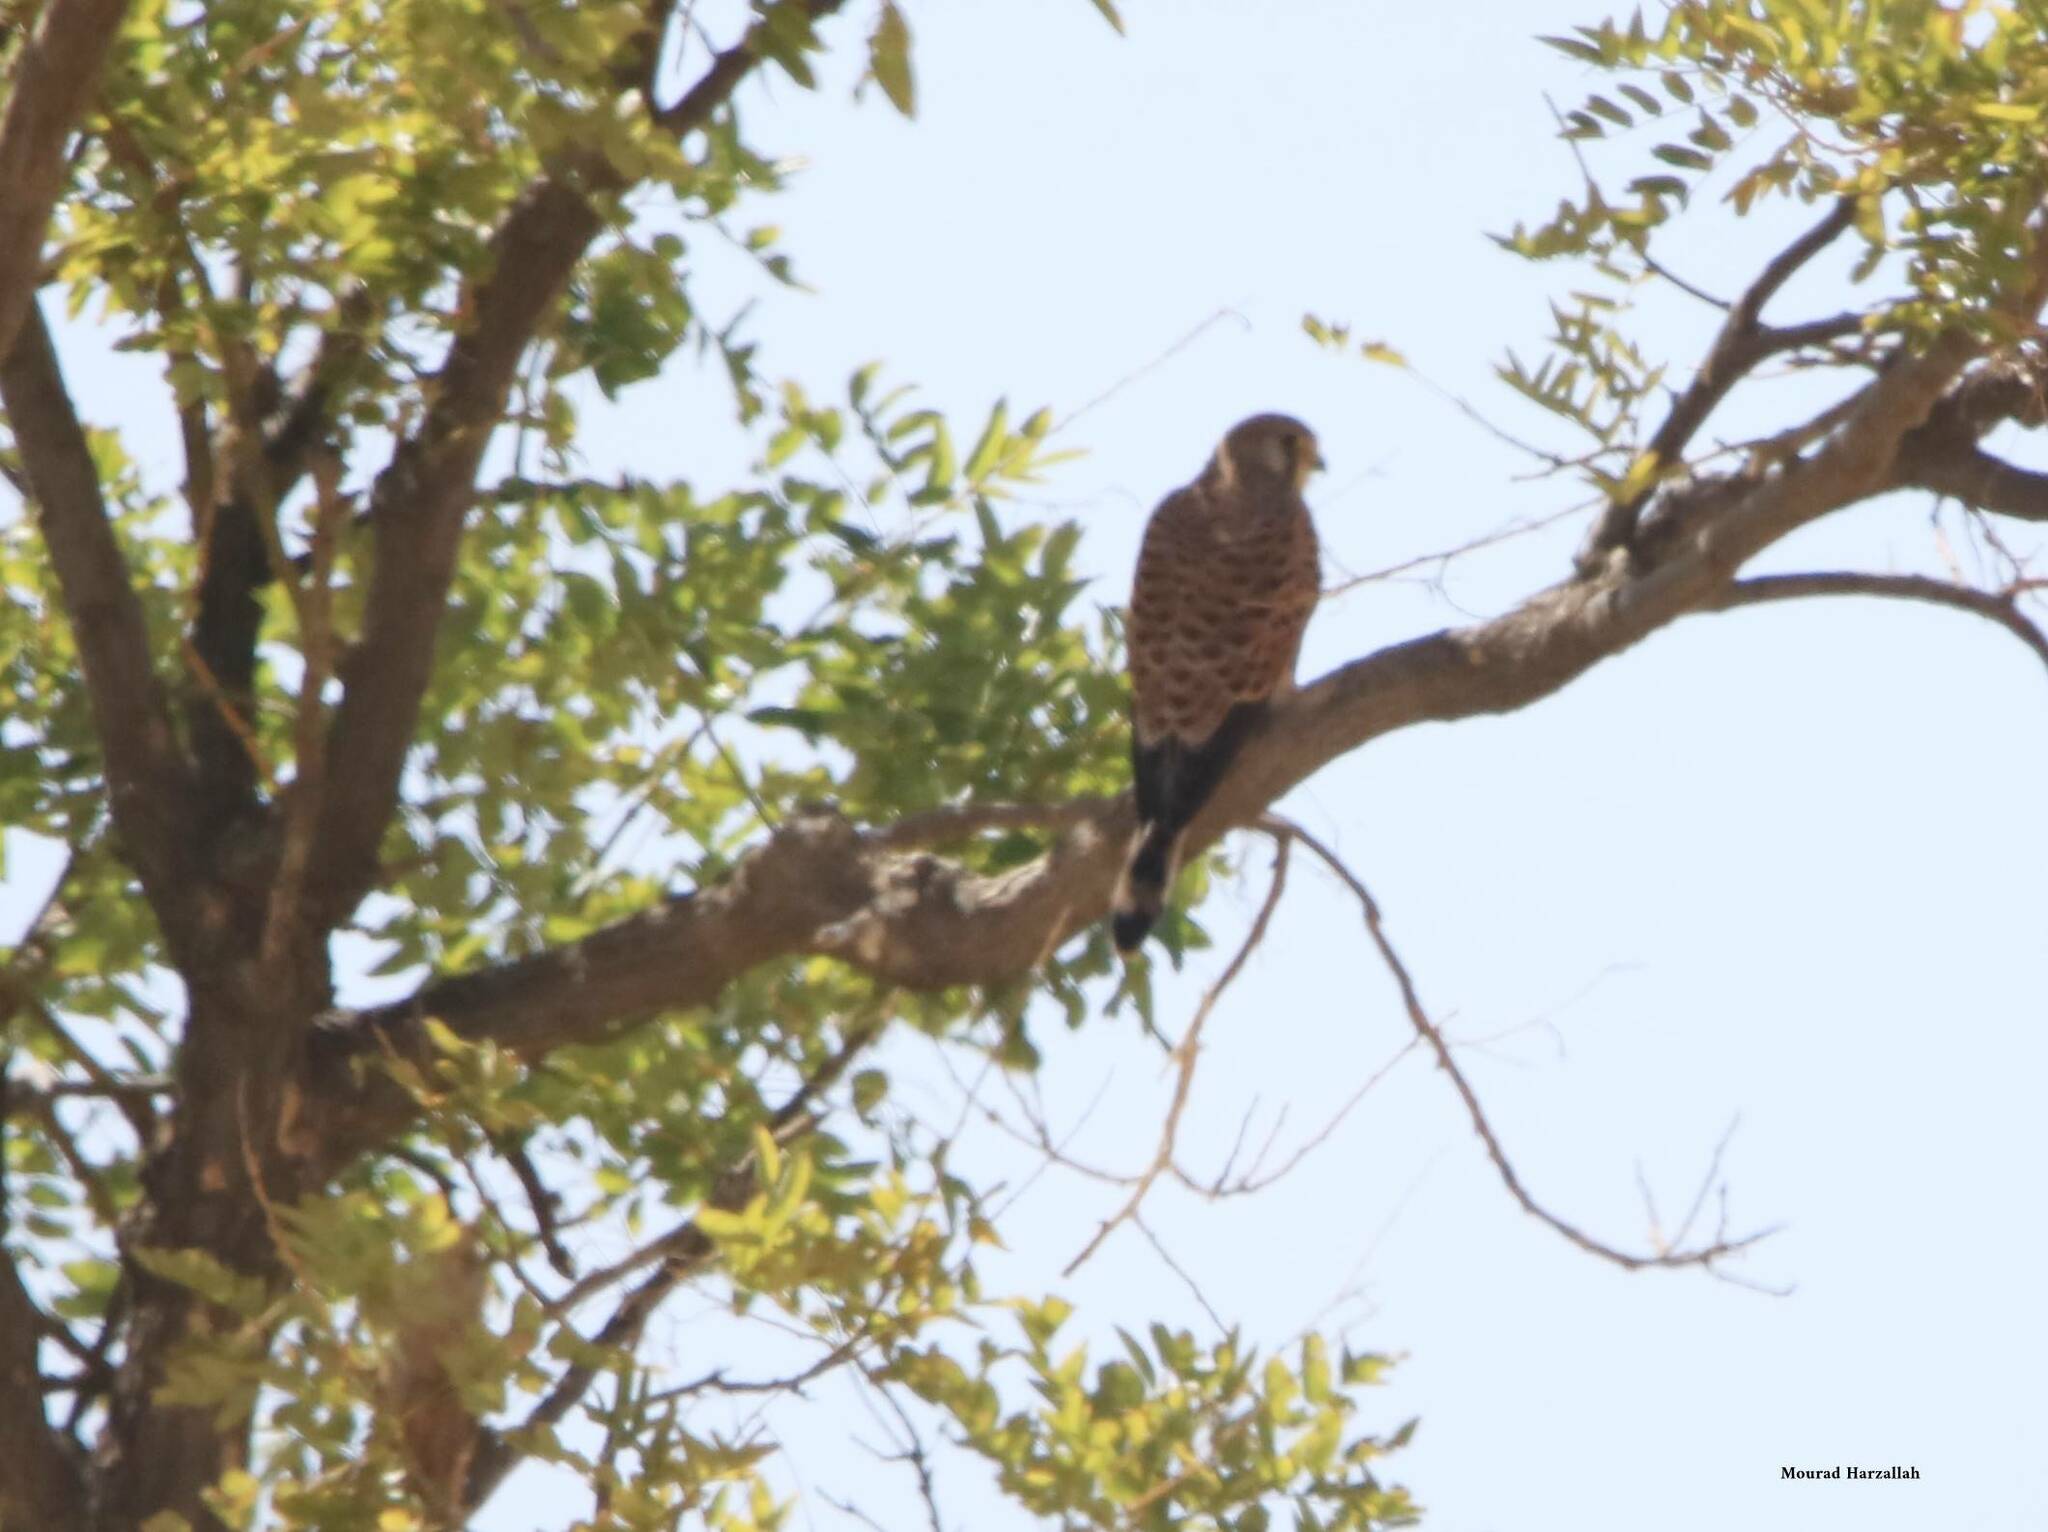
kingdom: Animalia
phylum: Chordata
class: Aves
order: Falconiformes
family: Falconidae
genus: Falco
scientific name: Falco tinnunculus
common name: Common kestrel
